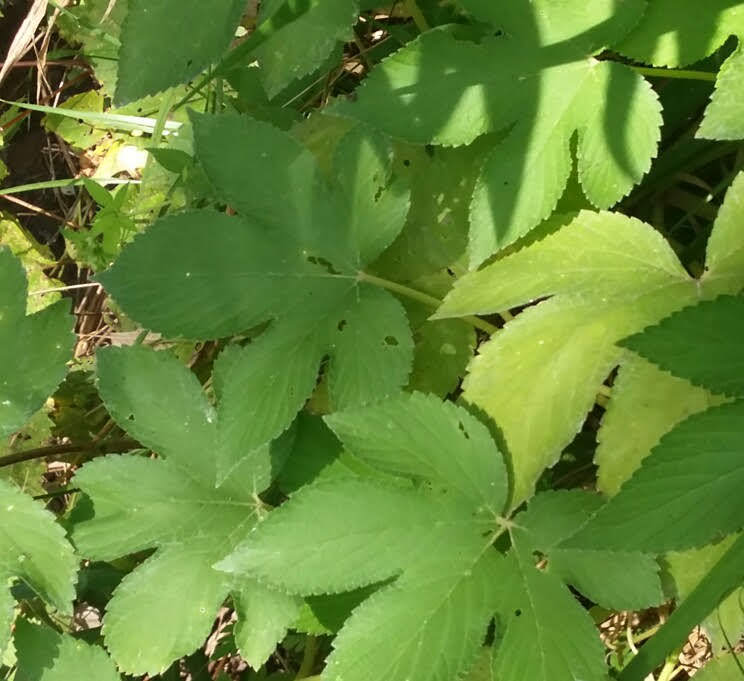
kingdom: Plantae
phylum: Tracheophyta
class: Magnoliopsida
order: Rosales
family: Cannabaceae
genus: Humulus
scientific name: Humulus scandens
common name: Japanese hop
